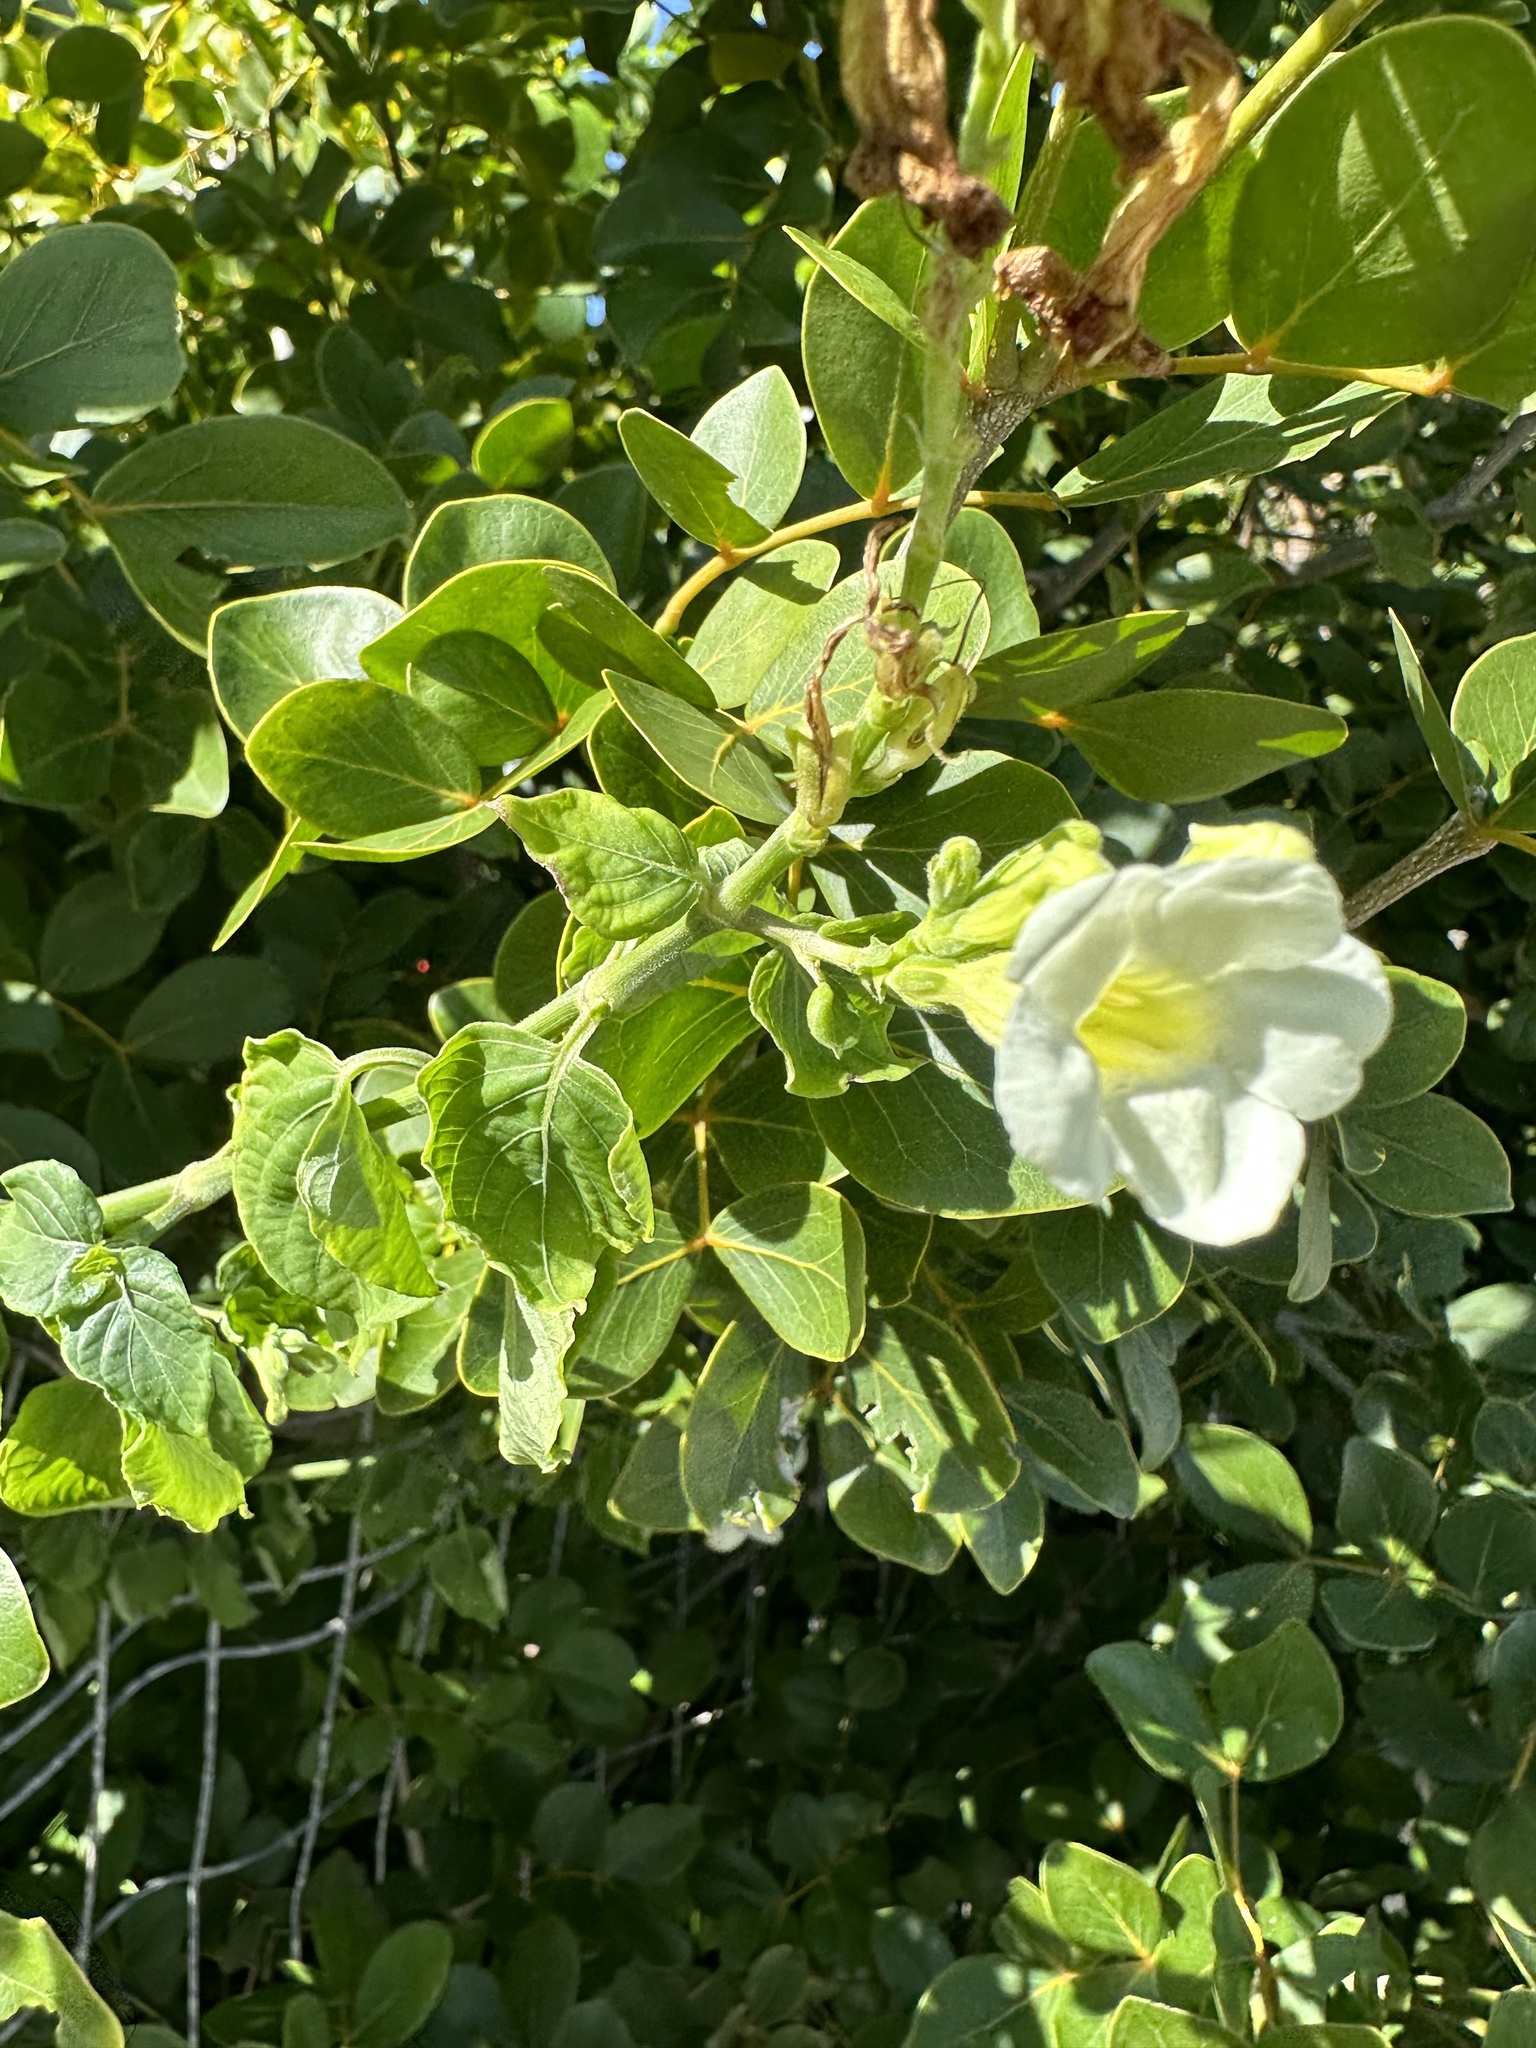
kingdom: Plantae
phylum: Tracheophyta
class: Magnoliopsida
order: Lamiales
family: Acanthaceae
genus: Asystasia
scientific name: Asystasia gangetica
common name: Chinese violet
